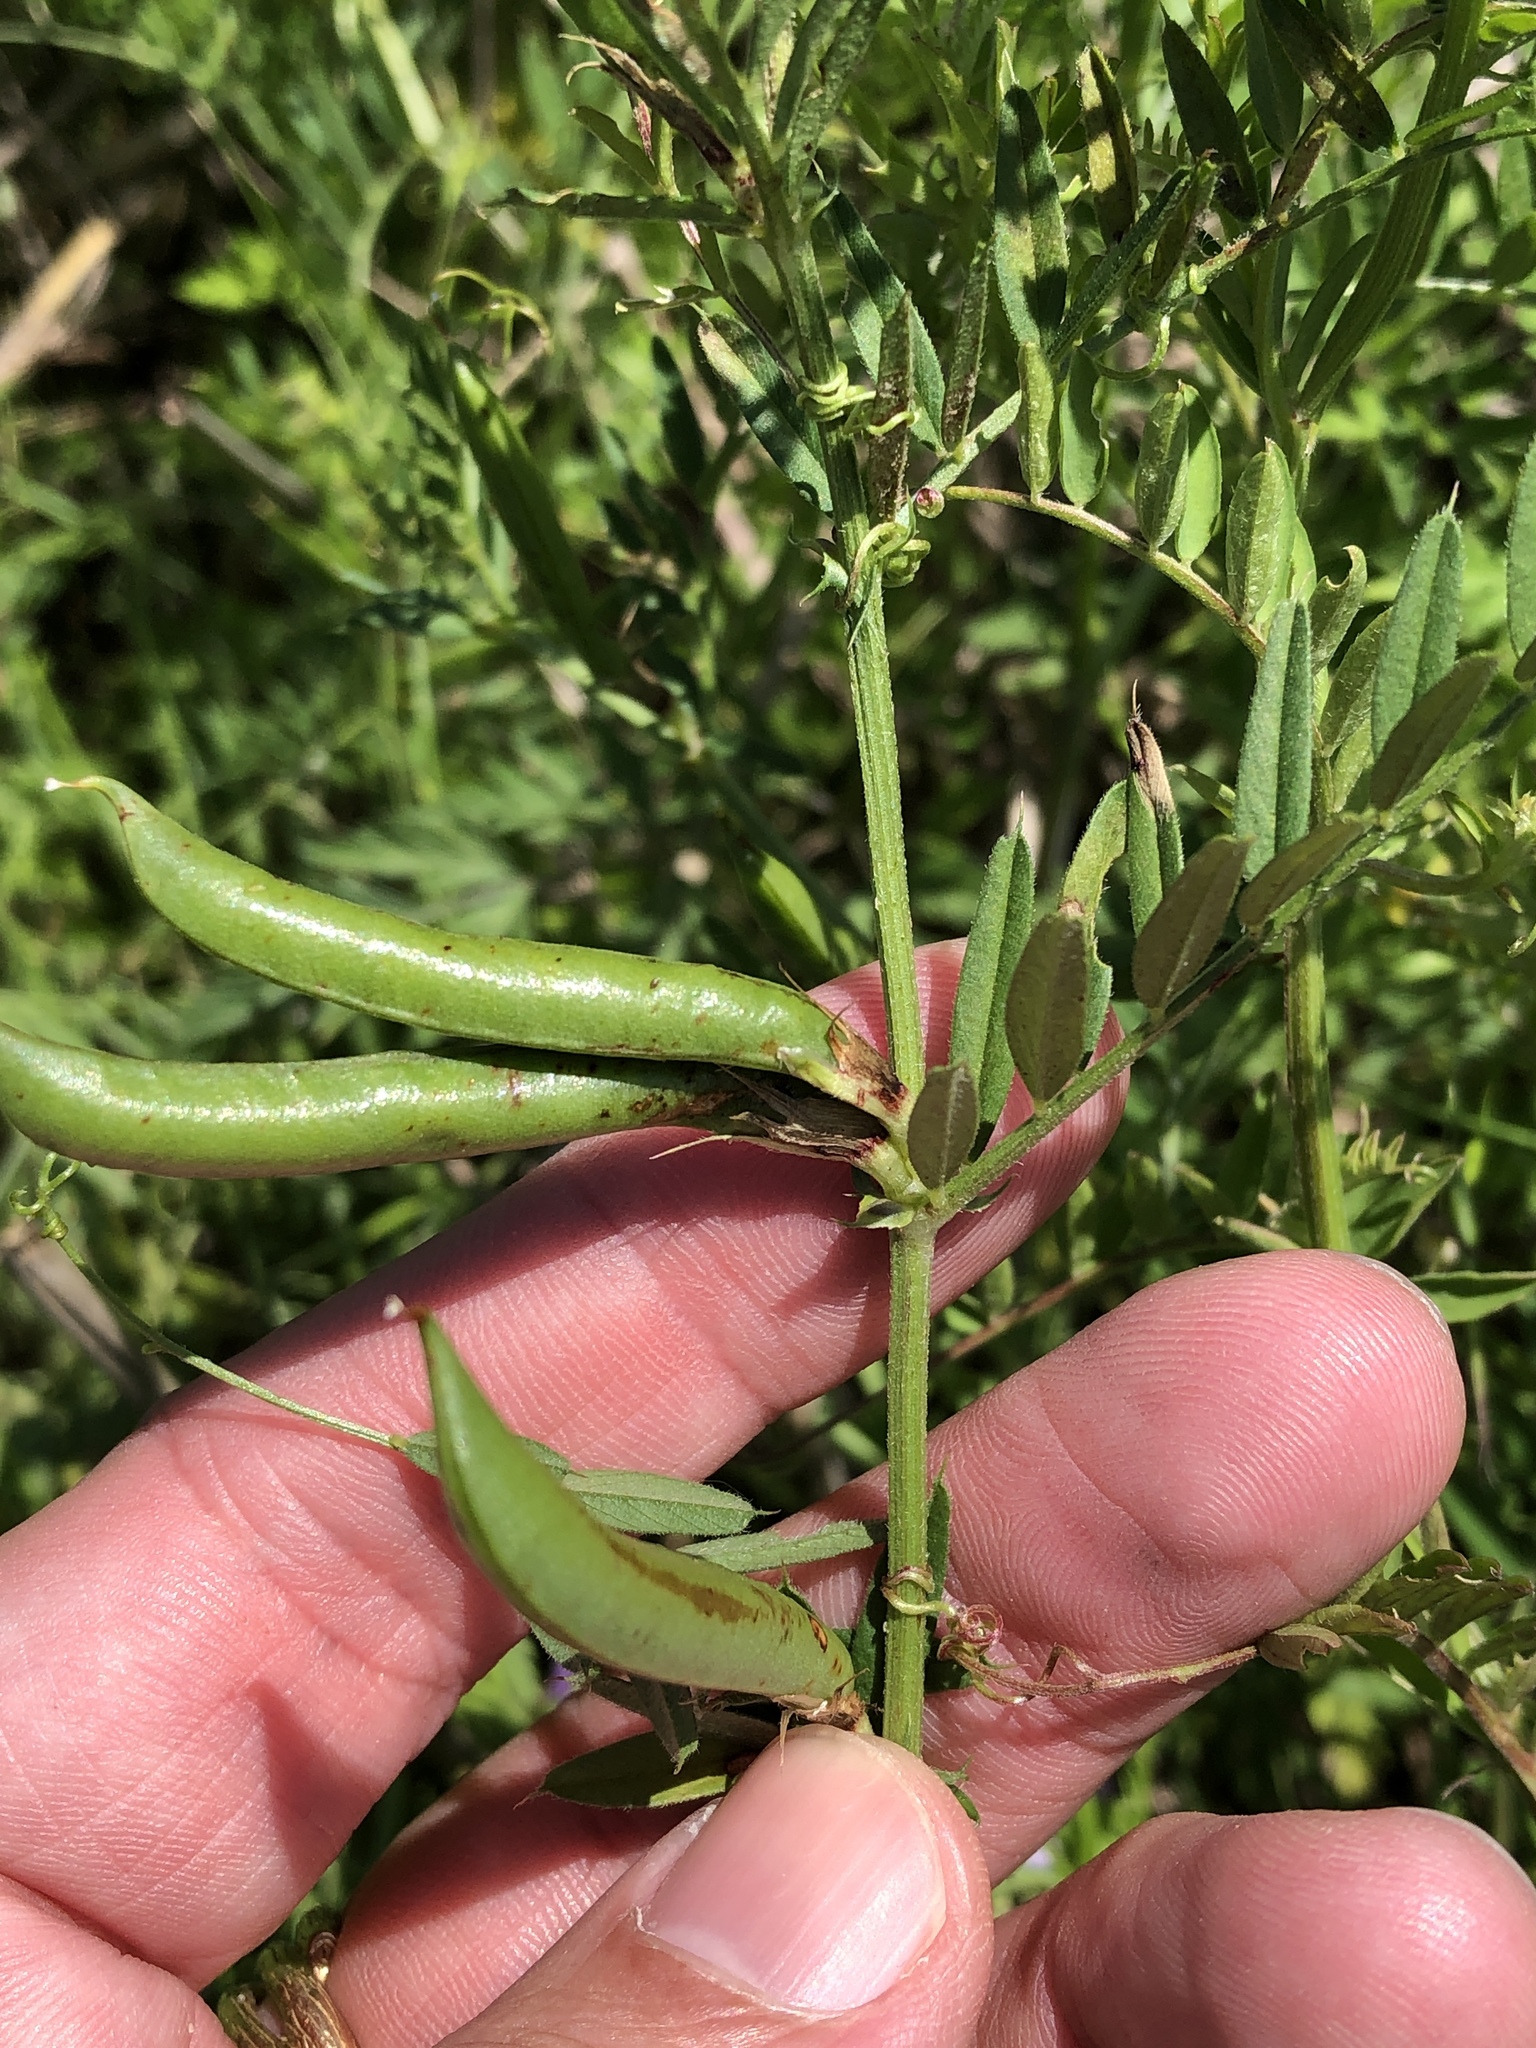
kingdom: Plantae
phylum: Tracheophyta
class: Magnoliopsida
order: Fabales
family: Fabaceae
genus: Vicia
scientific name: Vicia sativa
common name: Garden vetch
